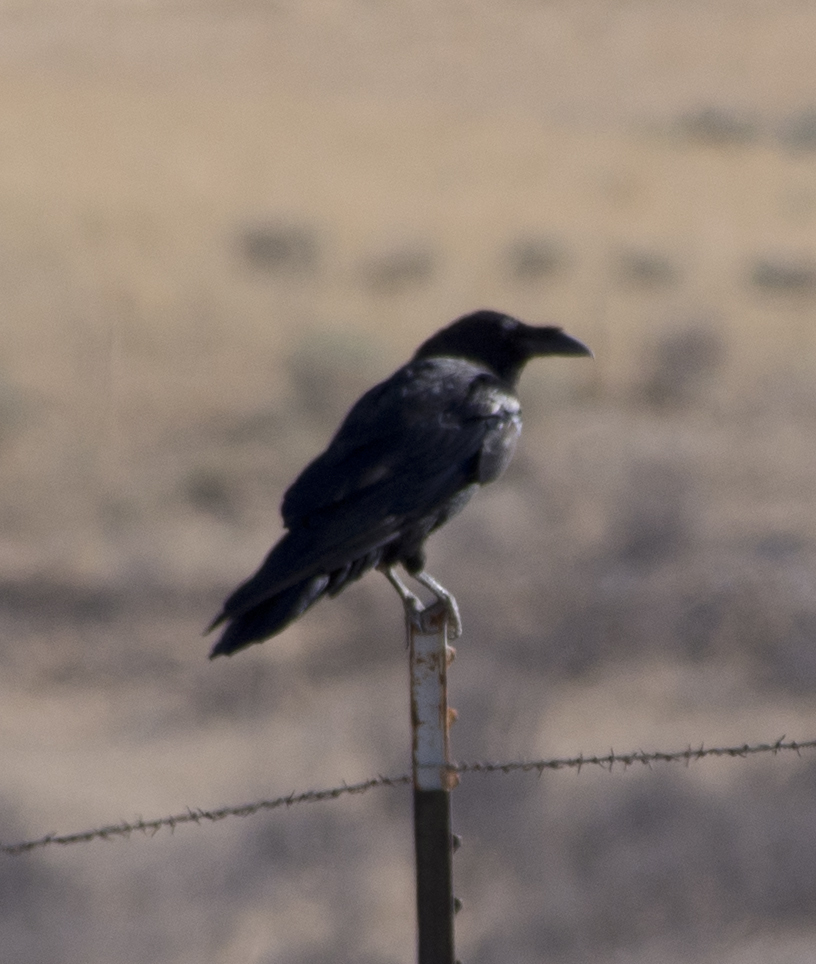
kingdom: Animalia
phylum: Chordata
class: Aves
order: Passeriformes
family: Corvidae
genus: Corvus
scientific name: Corvus corax
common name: Common raven
